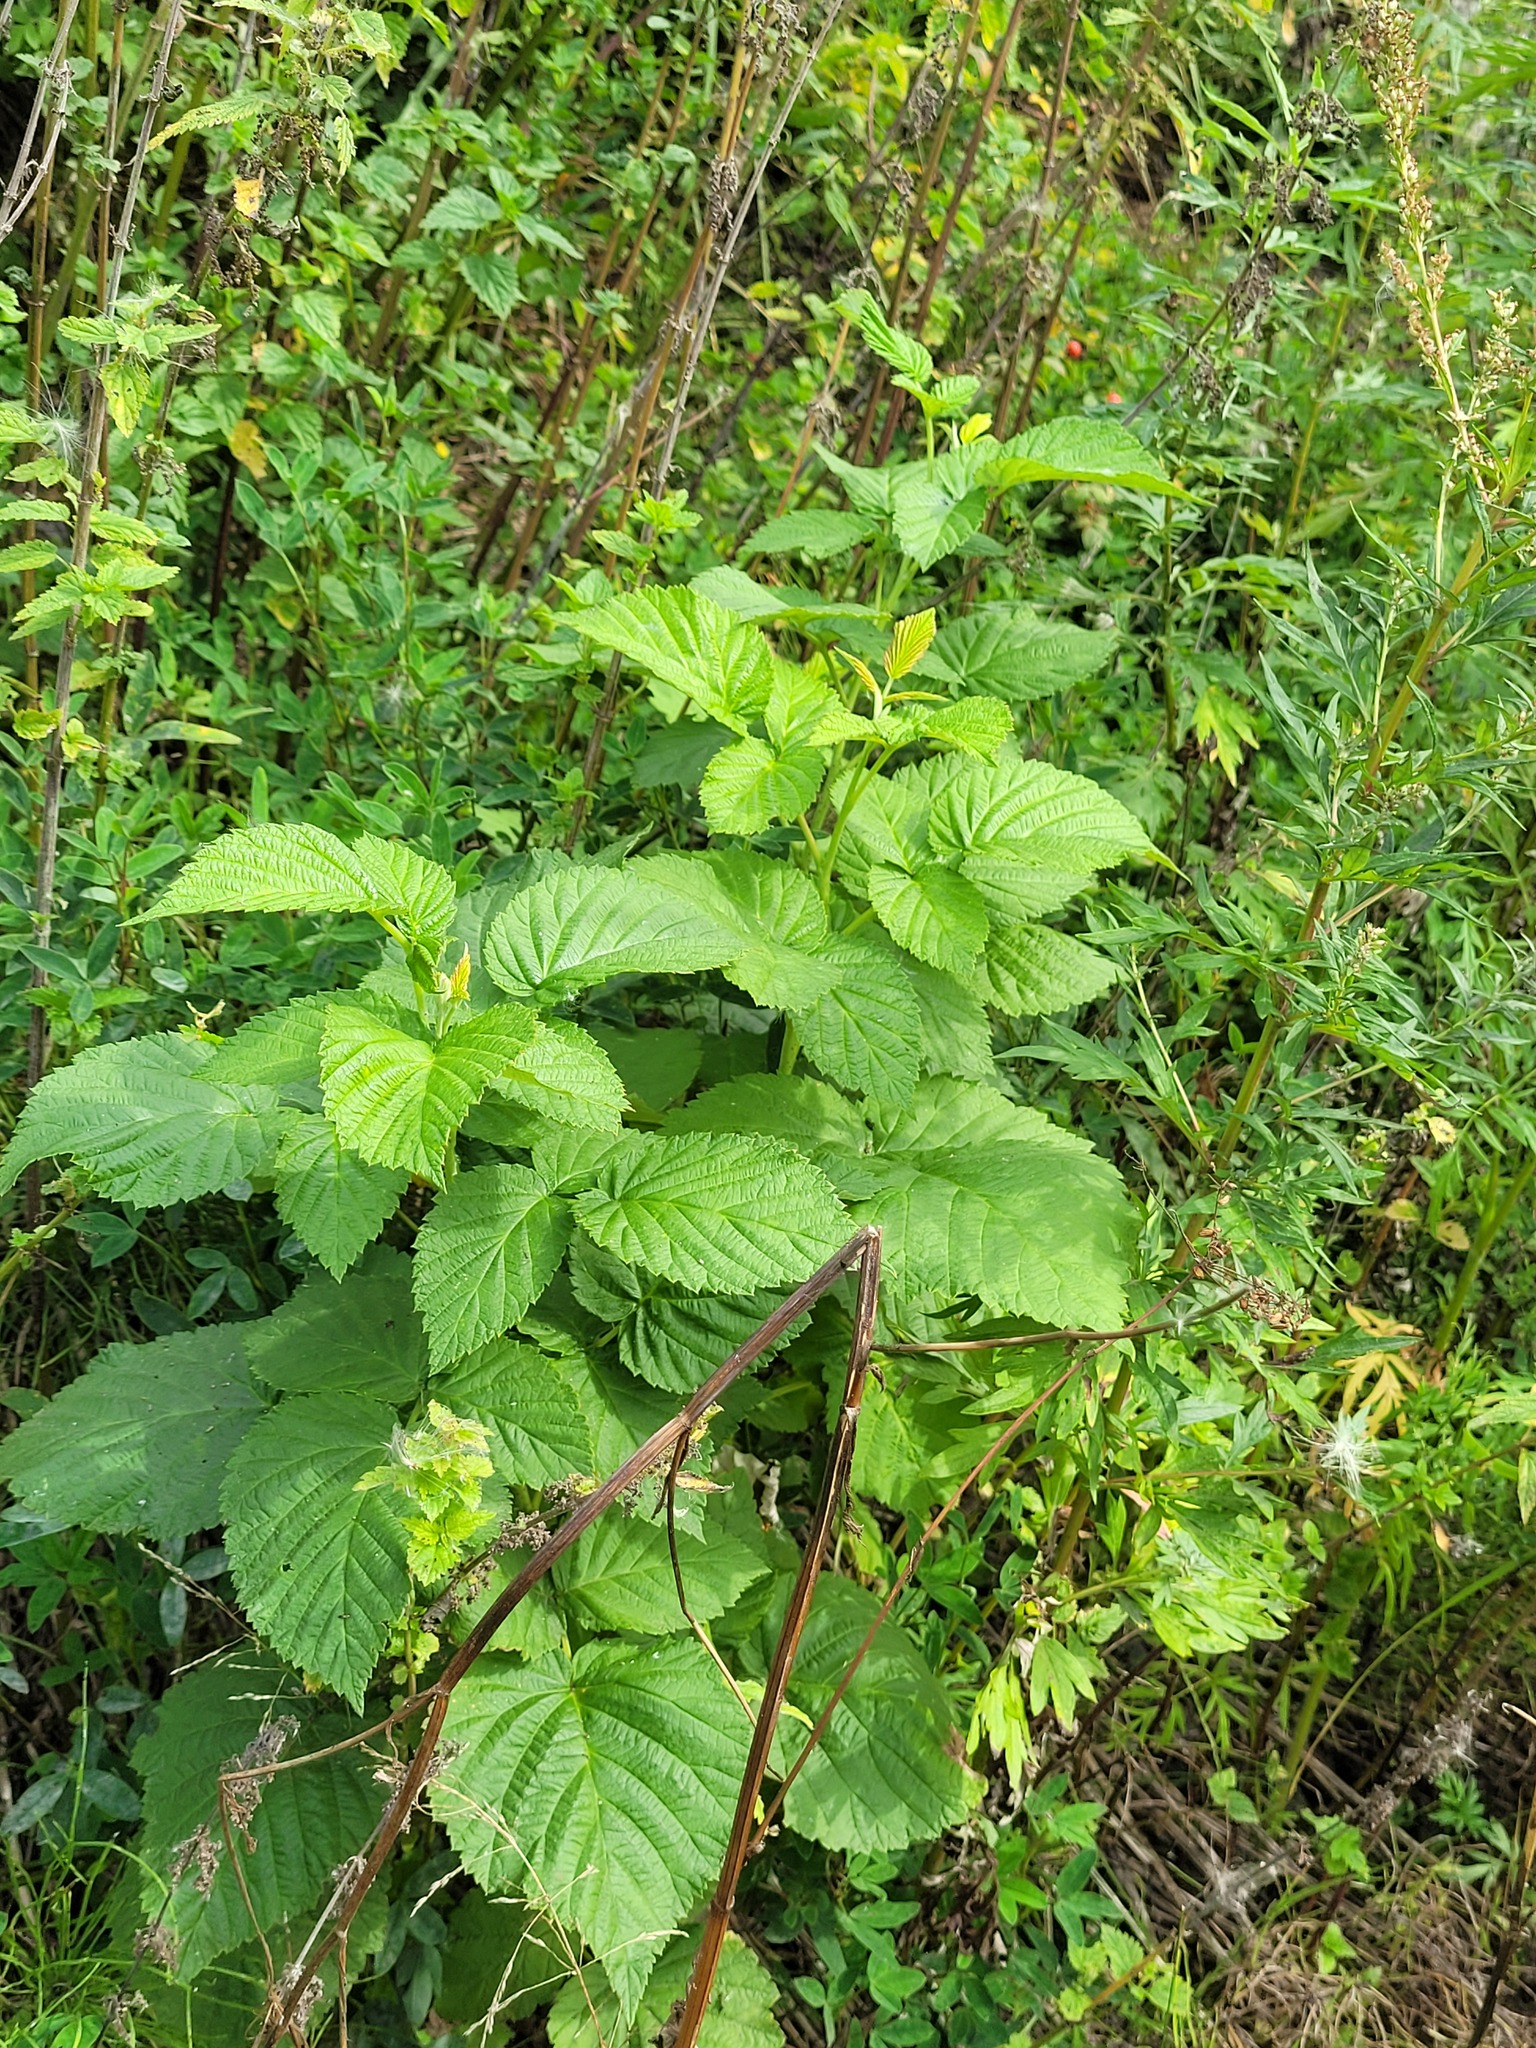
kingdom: Plantae
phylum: Tracheophyta
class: Magnoliopsida
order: Rosales
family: Rosaceae
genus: Rubus
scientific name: Rubus idaeus
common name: Raspberry
